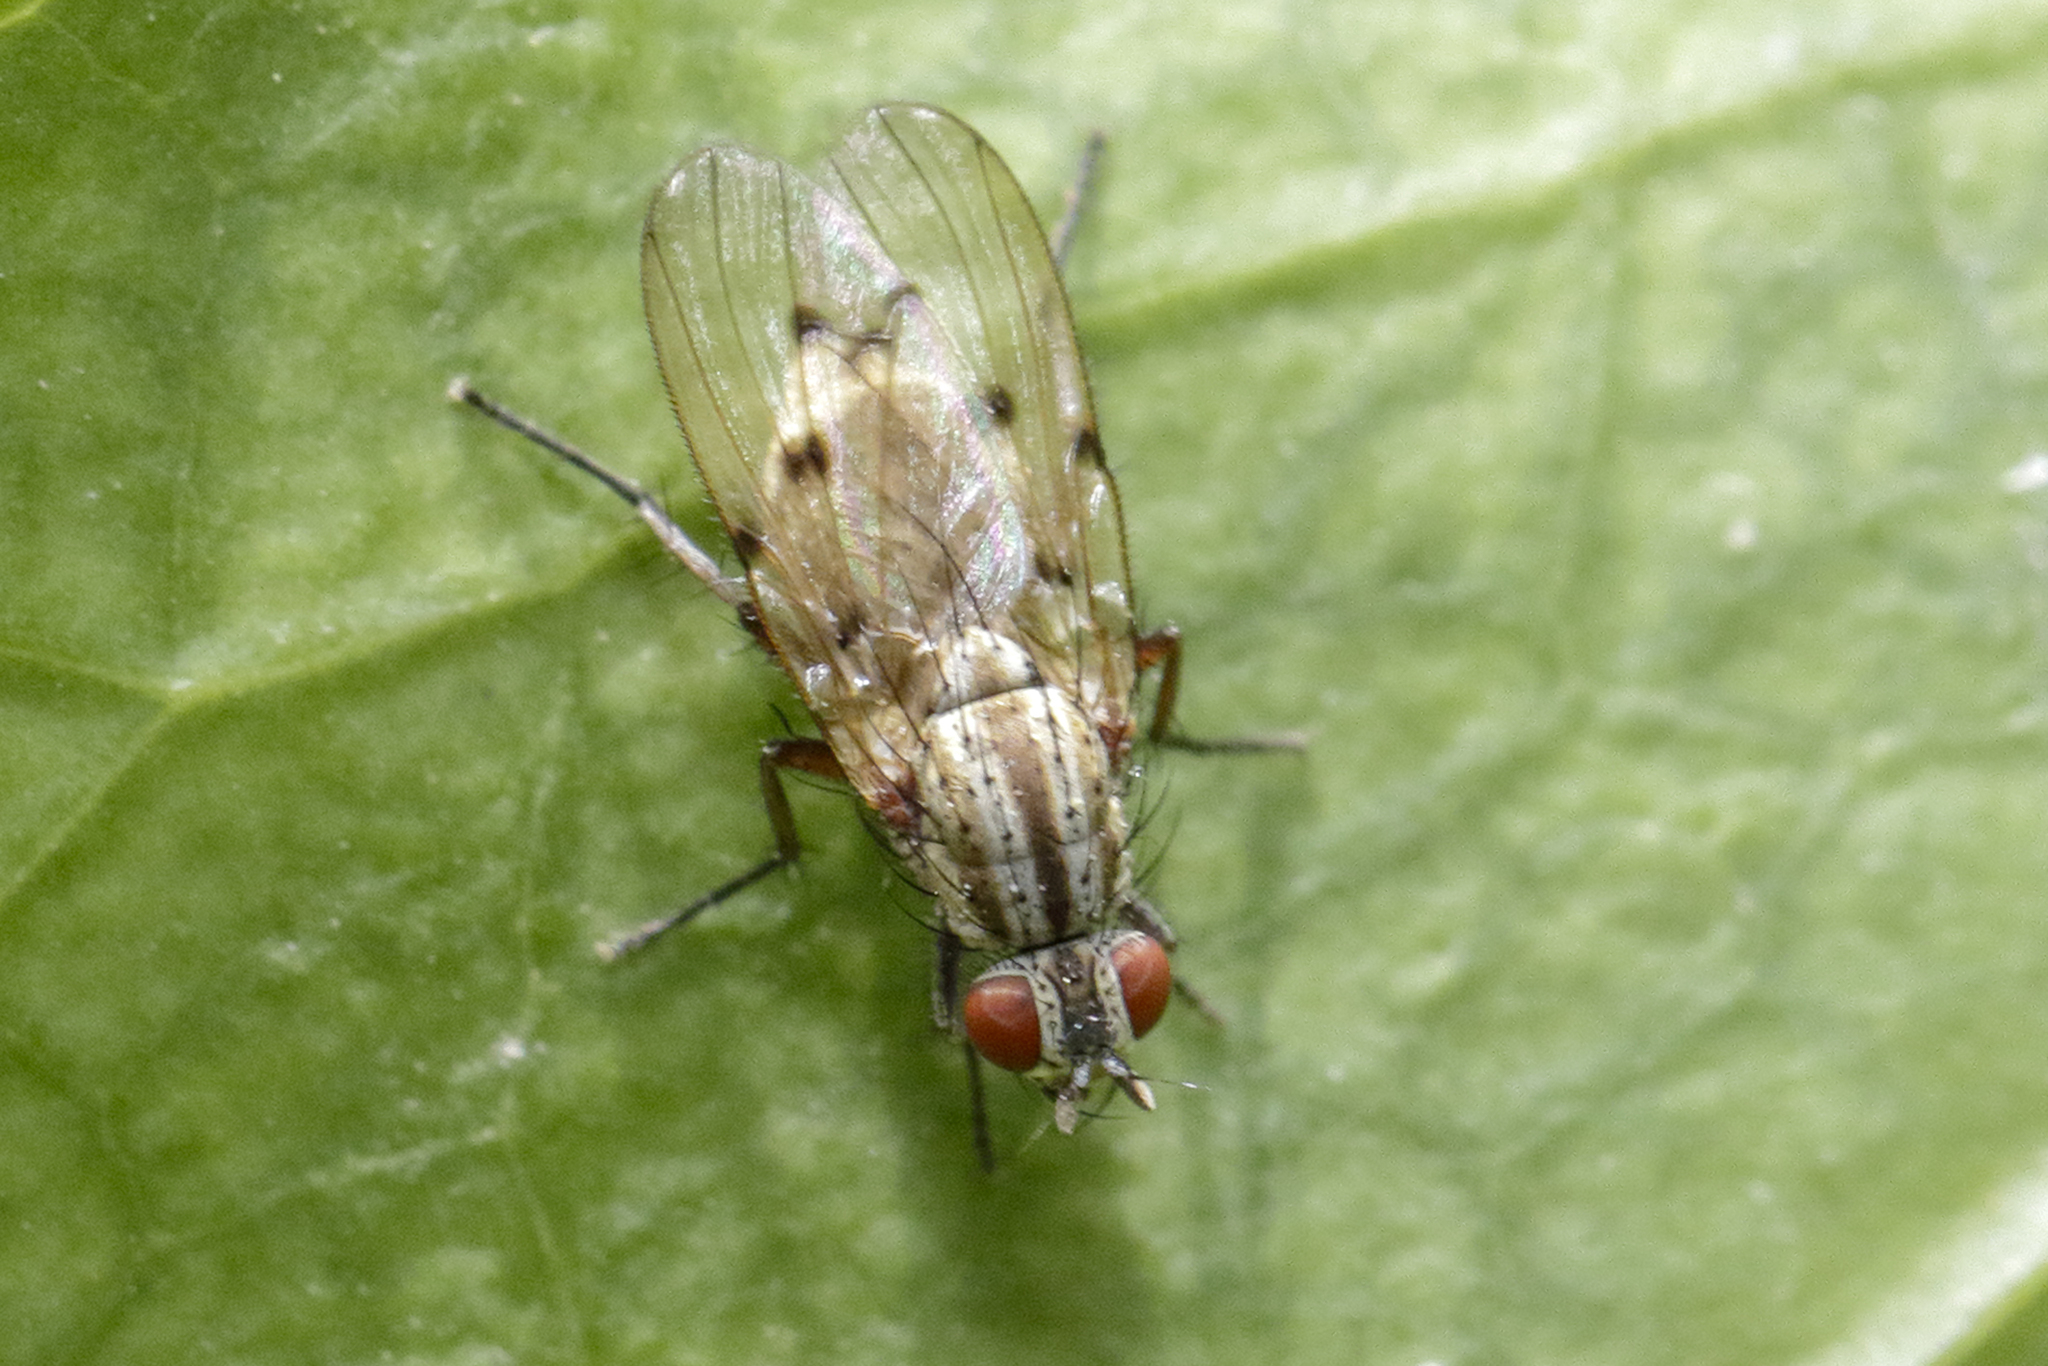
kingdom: Animalia
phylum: Arthropoda
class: Insecta
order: Diptera
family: Anthomyiidae
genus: Anthomyia
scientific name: Anthomyia punctipennis
